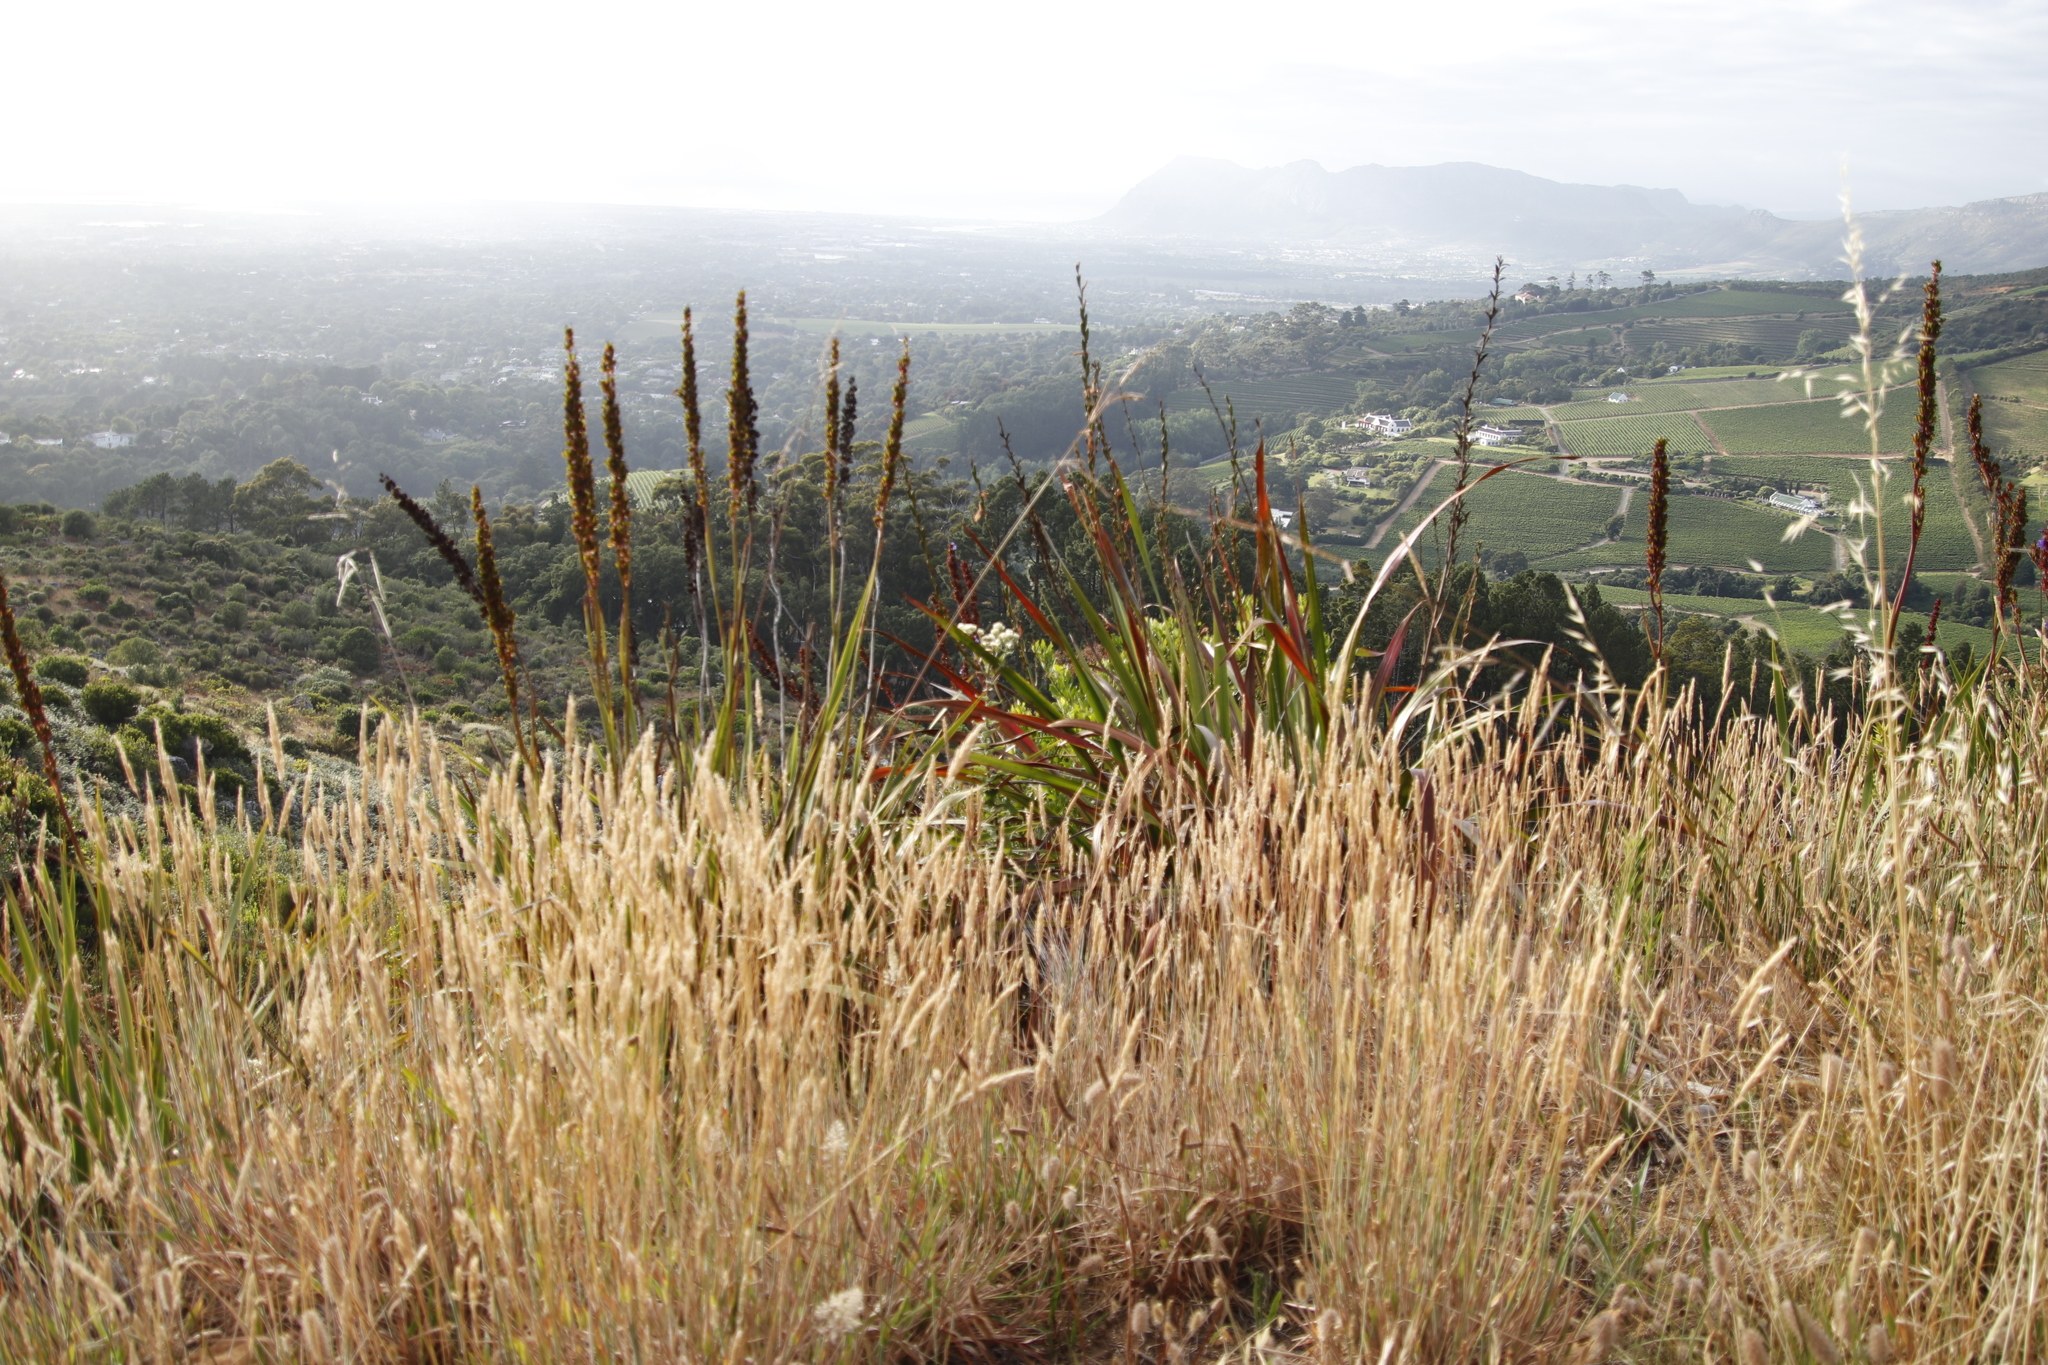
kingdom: Plantae
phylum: Tracheophyta
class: Liliopsida
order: Asparagales
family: Iridaceae
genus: Aristea
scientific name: Aristea capitata
